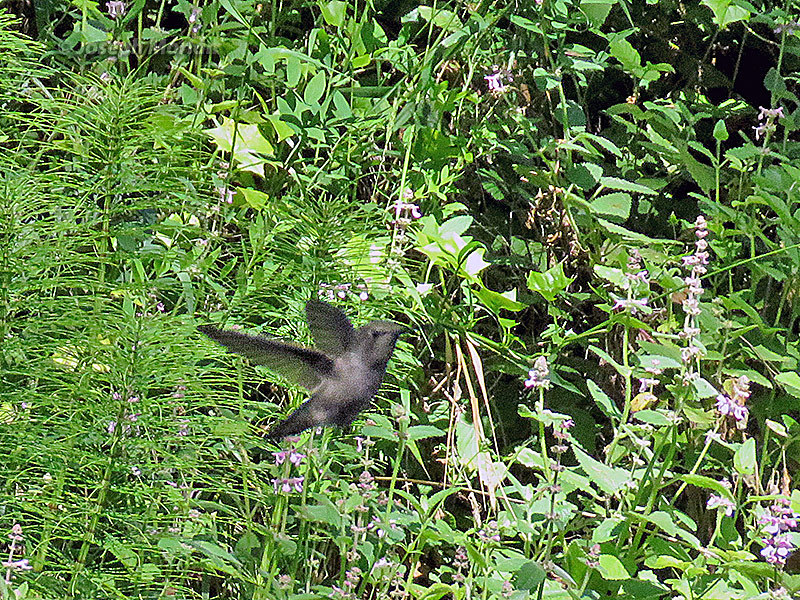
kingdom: Animalia
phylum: Chordata
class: Aves
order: Apodiformes
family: Trochilidae
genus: Calypte
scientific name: Calypte anna
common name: Anna's hummingbird
